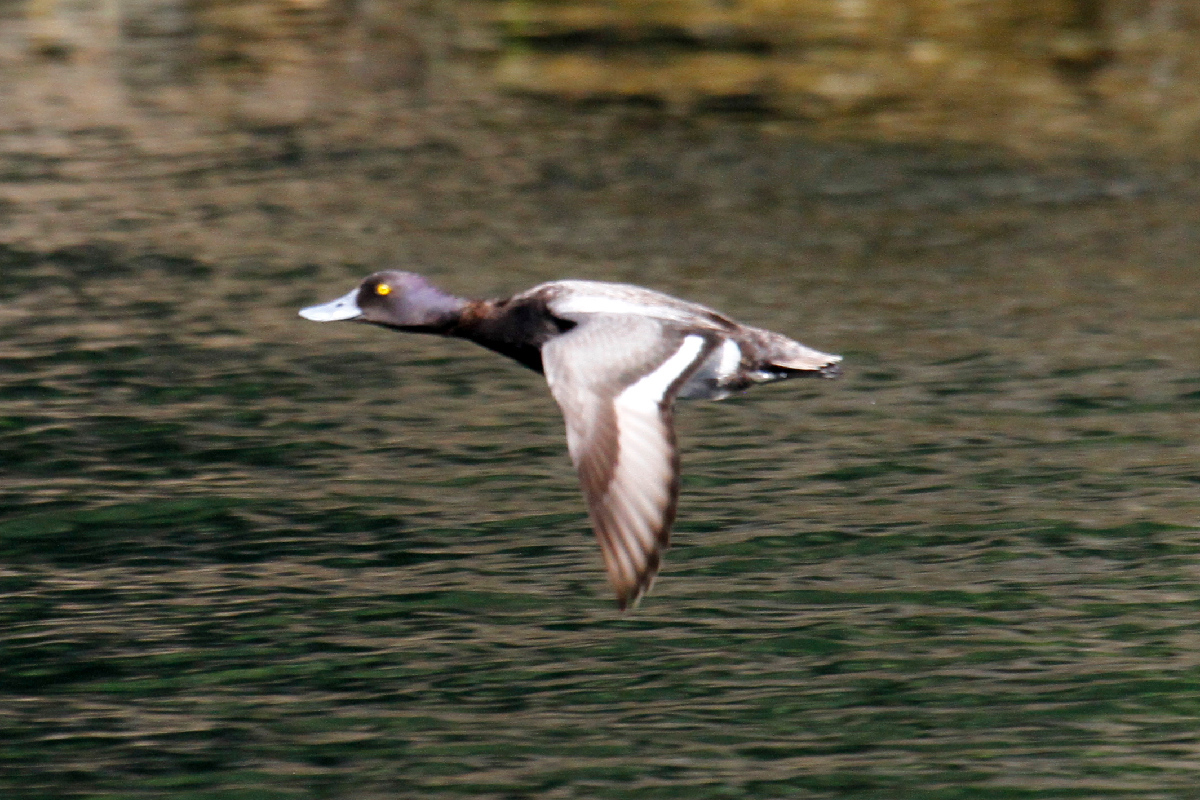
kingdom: Animalia
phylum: Chordata
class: Aves
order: Anseriformes
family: Anatidae
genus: Aythya
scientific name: Aythya marila
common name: Greater scaup
